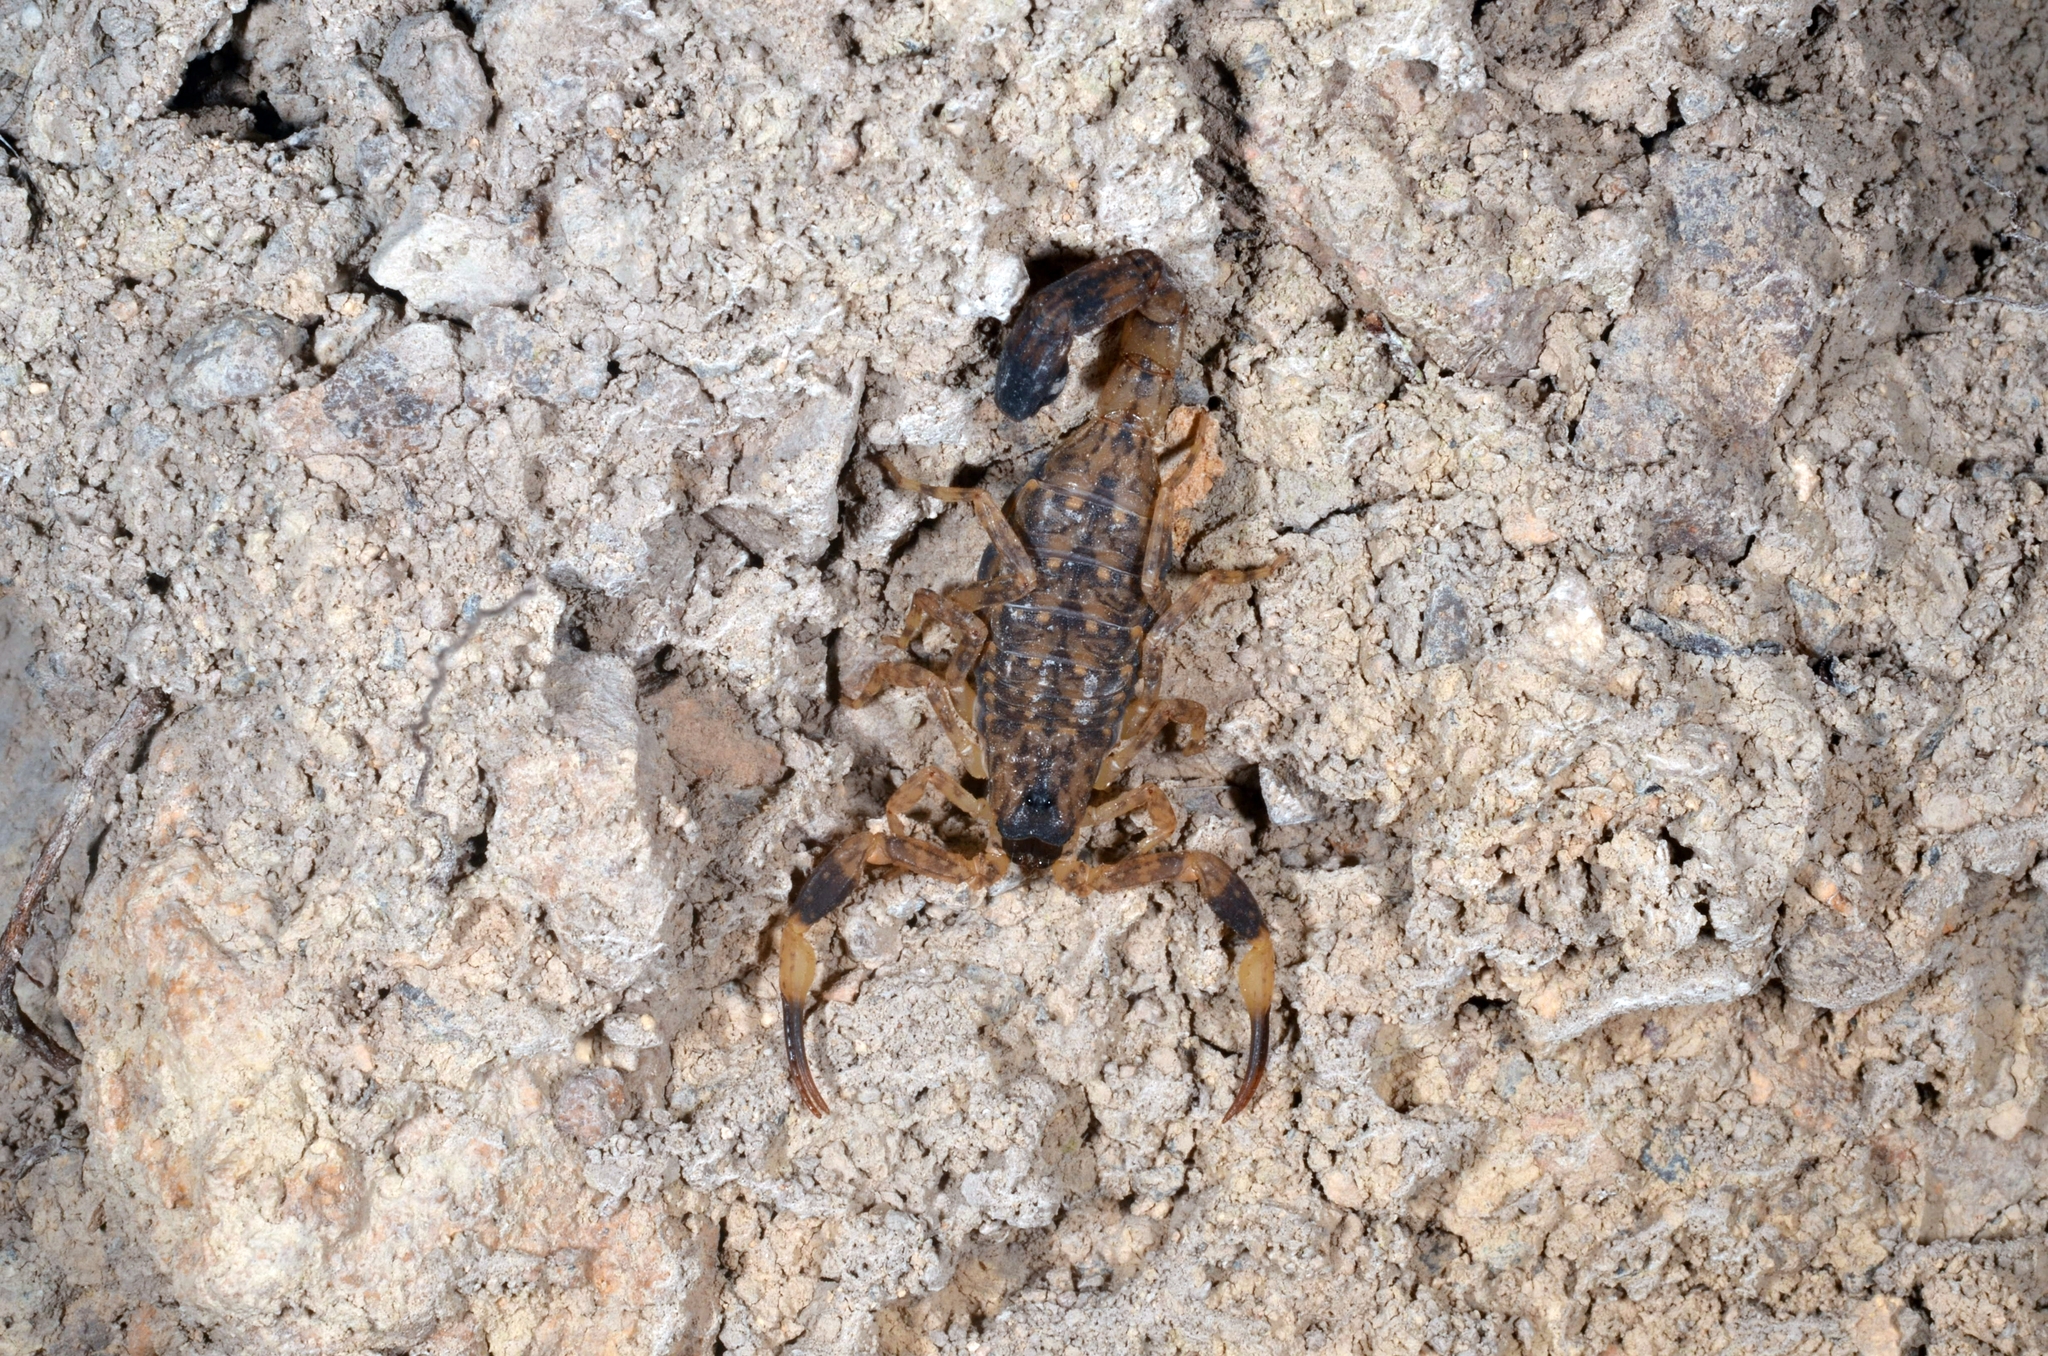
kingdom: Animalia
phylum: Arthropoda
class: Arachnida
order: Scorpiones
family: Buthidae
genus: Lychas
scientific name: Lychas mucronatus
